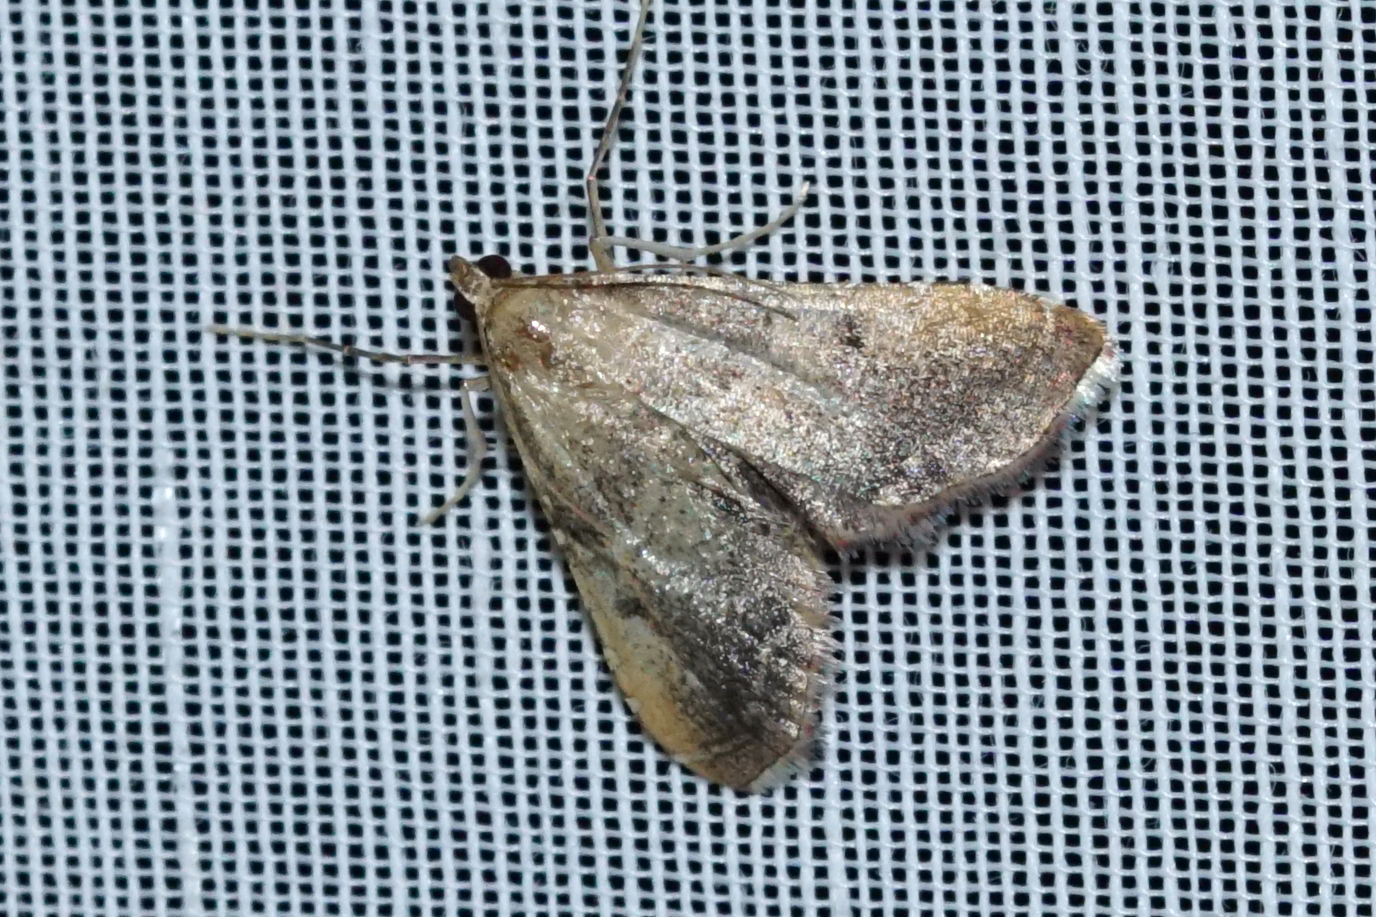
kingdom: Animalia
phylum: Arthropoda
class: Insecta
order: Lepidoptera
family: Pyralidae
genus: Endotricha
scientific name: Endotricha flammealis
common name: Rosy tabby
